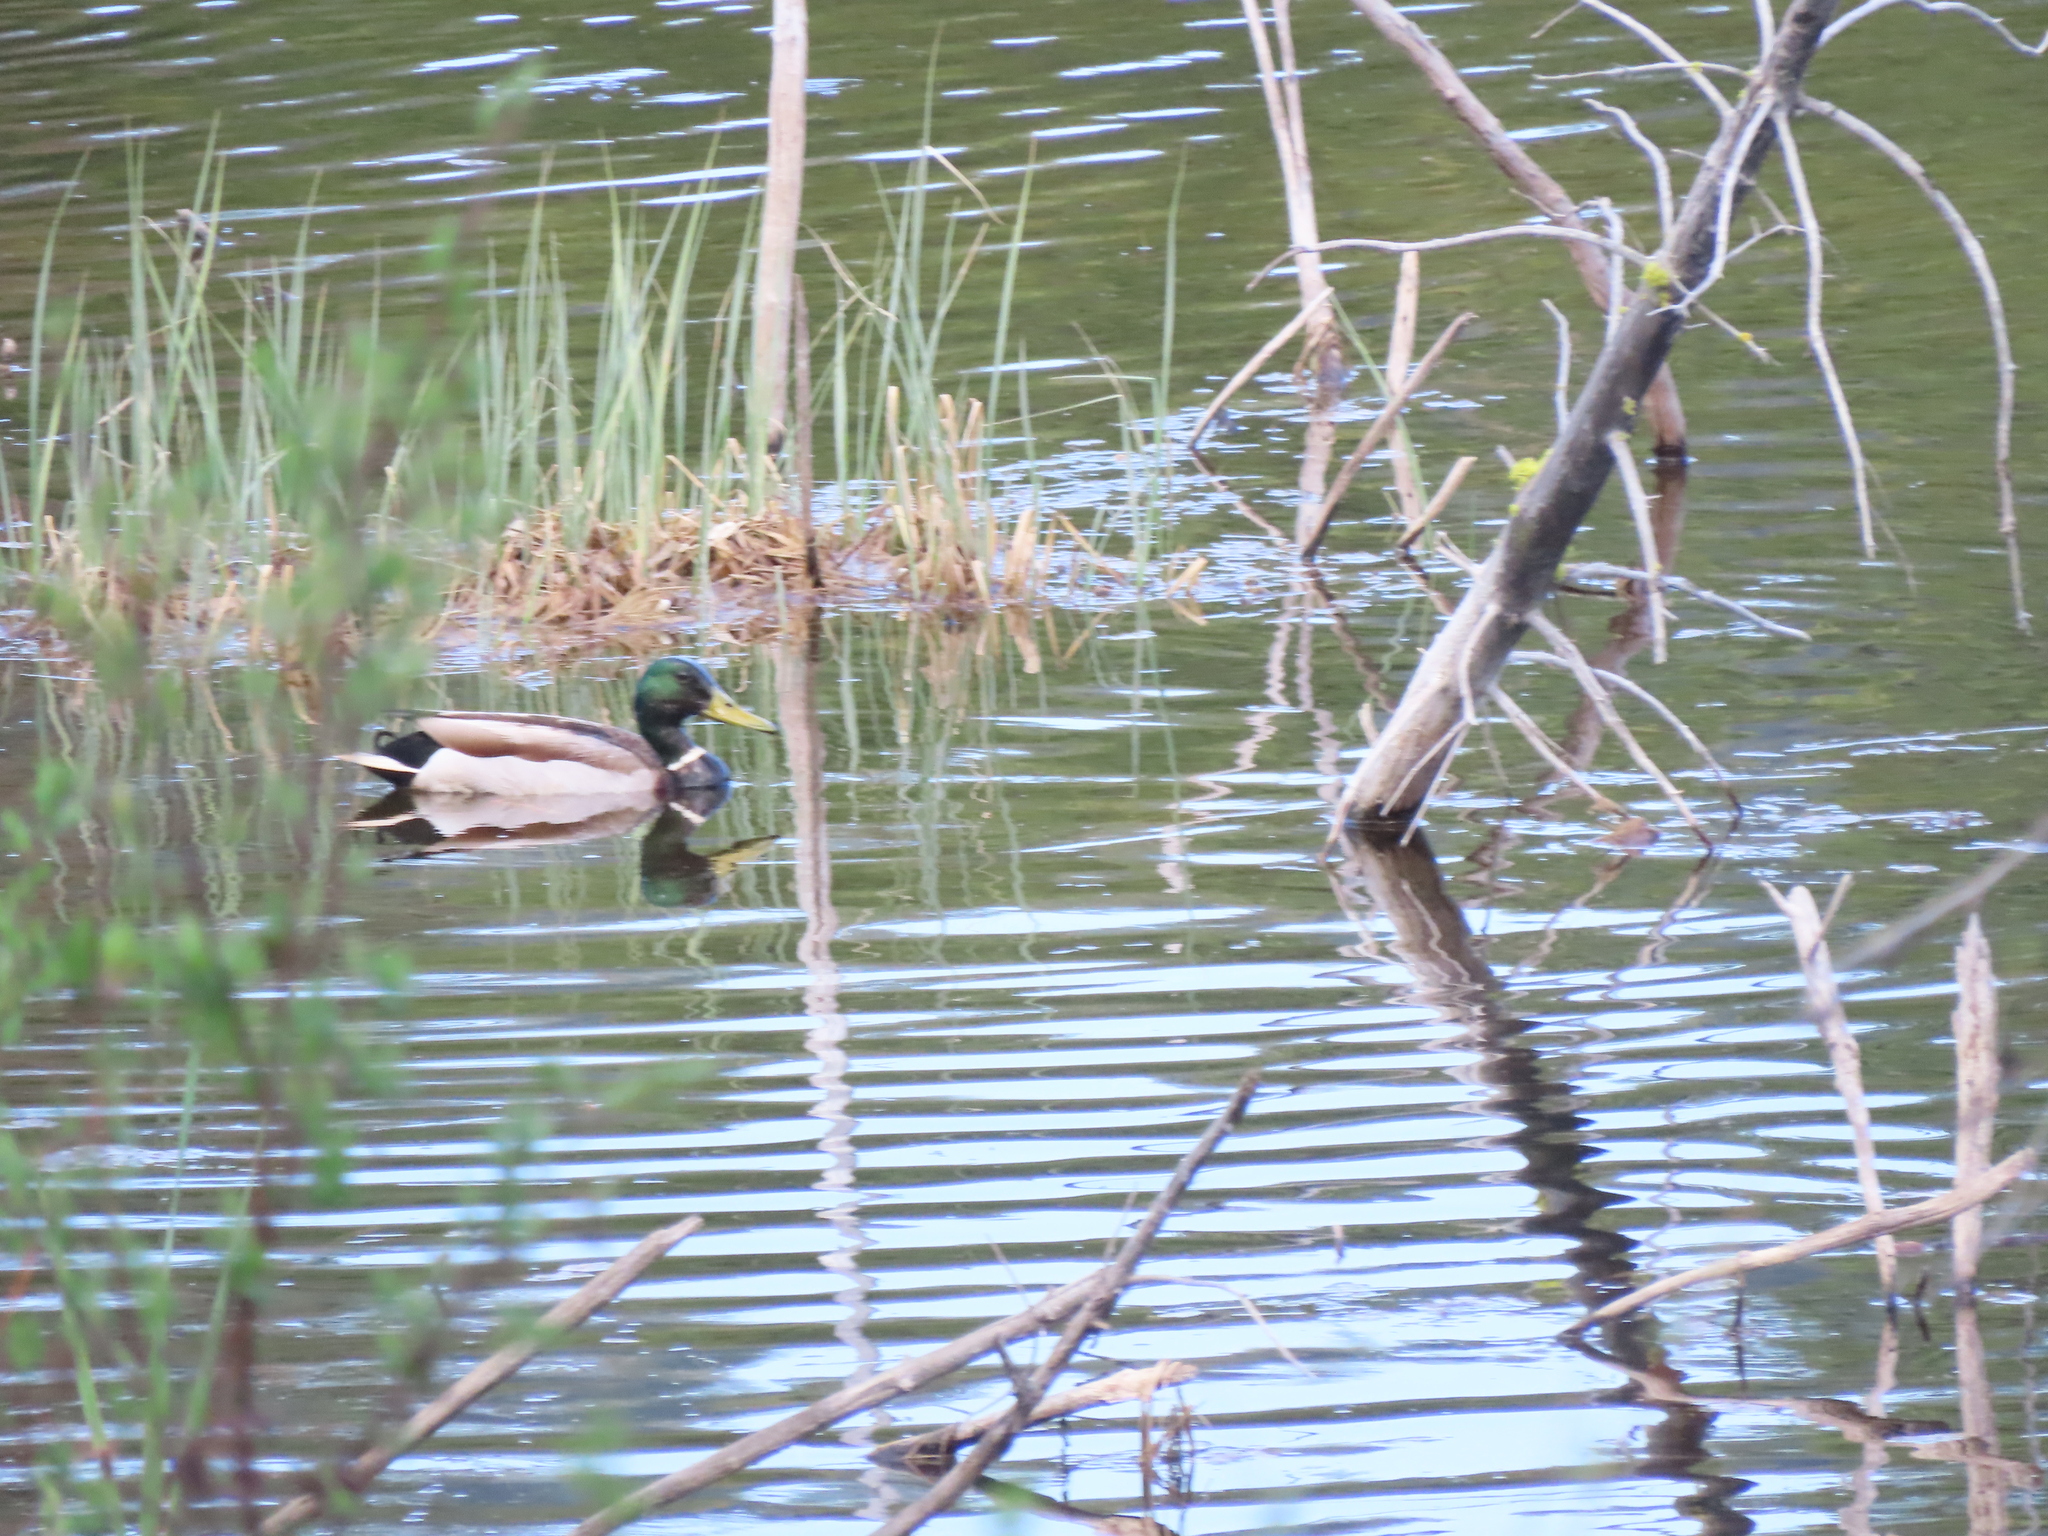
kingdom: Animalia
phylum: Chordata
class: Aves
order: Anseriformes
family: Anatidae
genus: Anas
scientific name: Anas platyrhynchos
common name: Mallard
